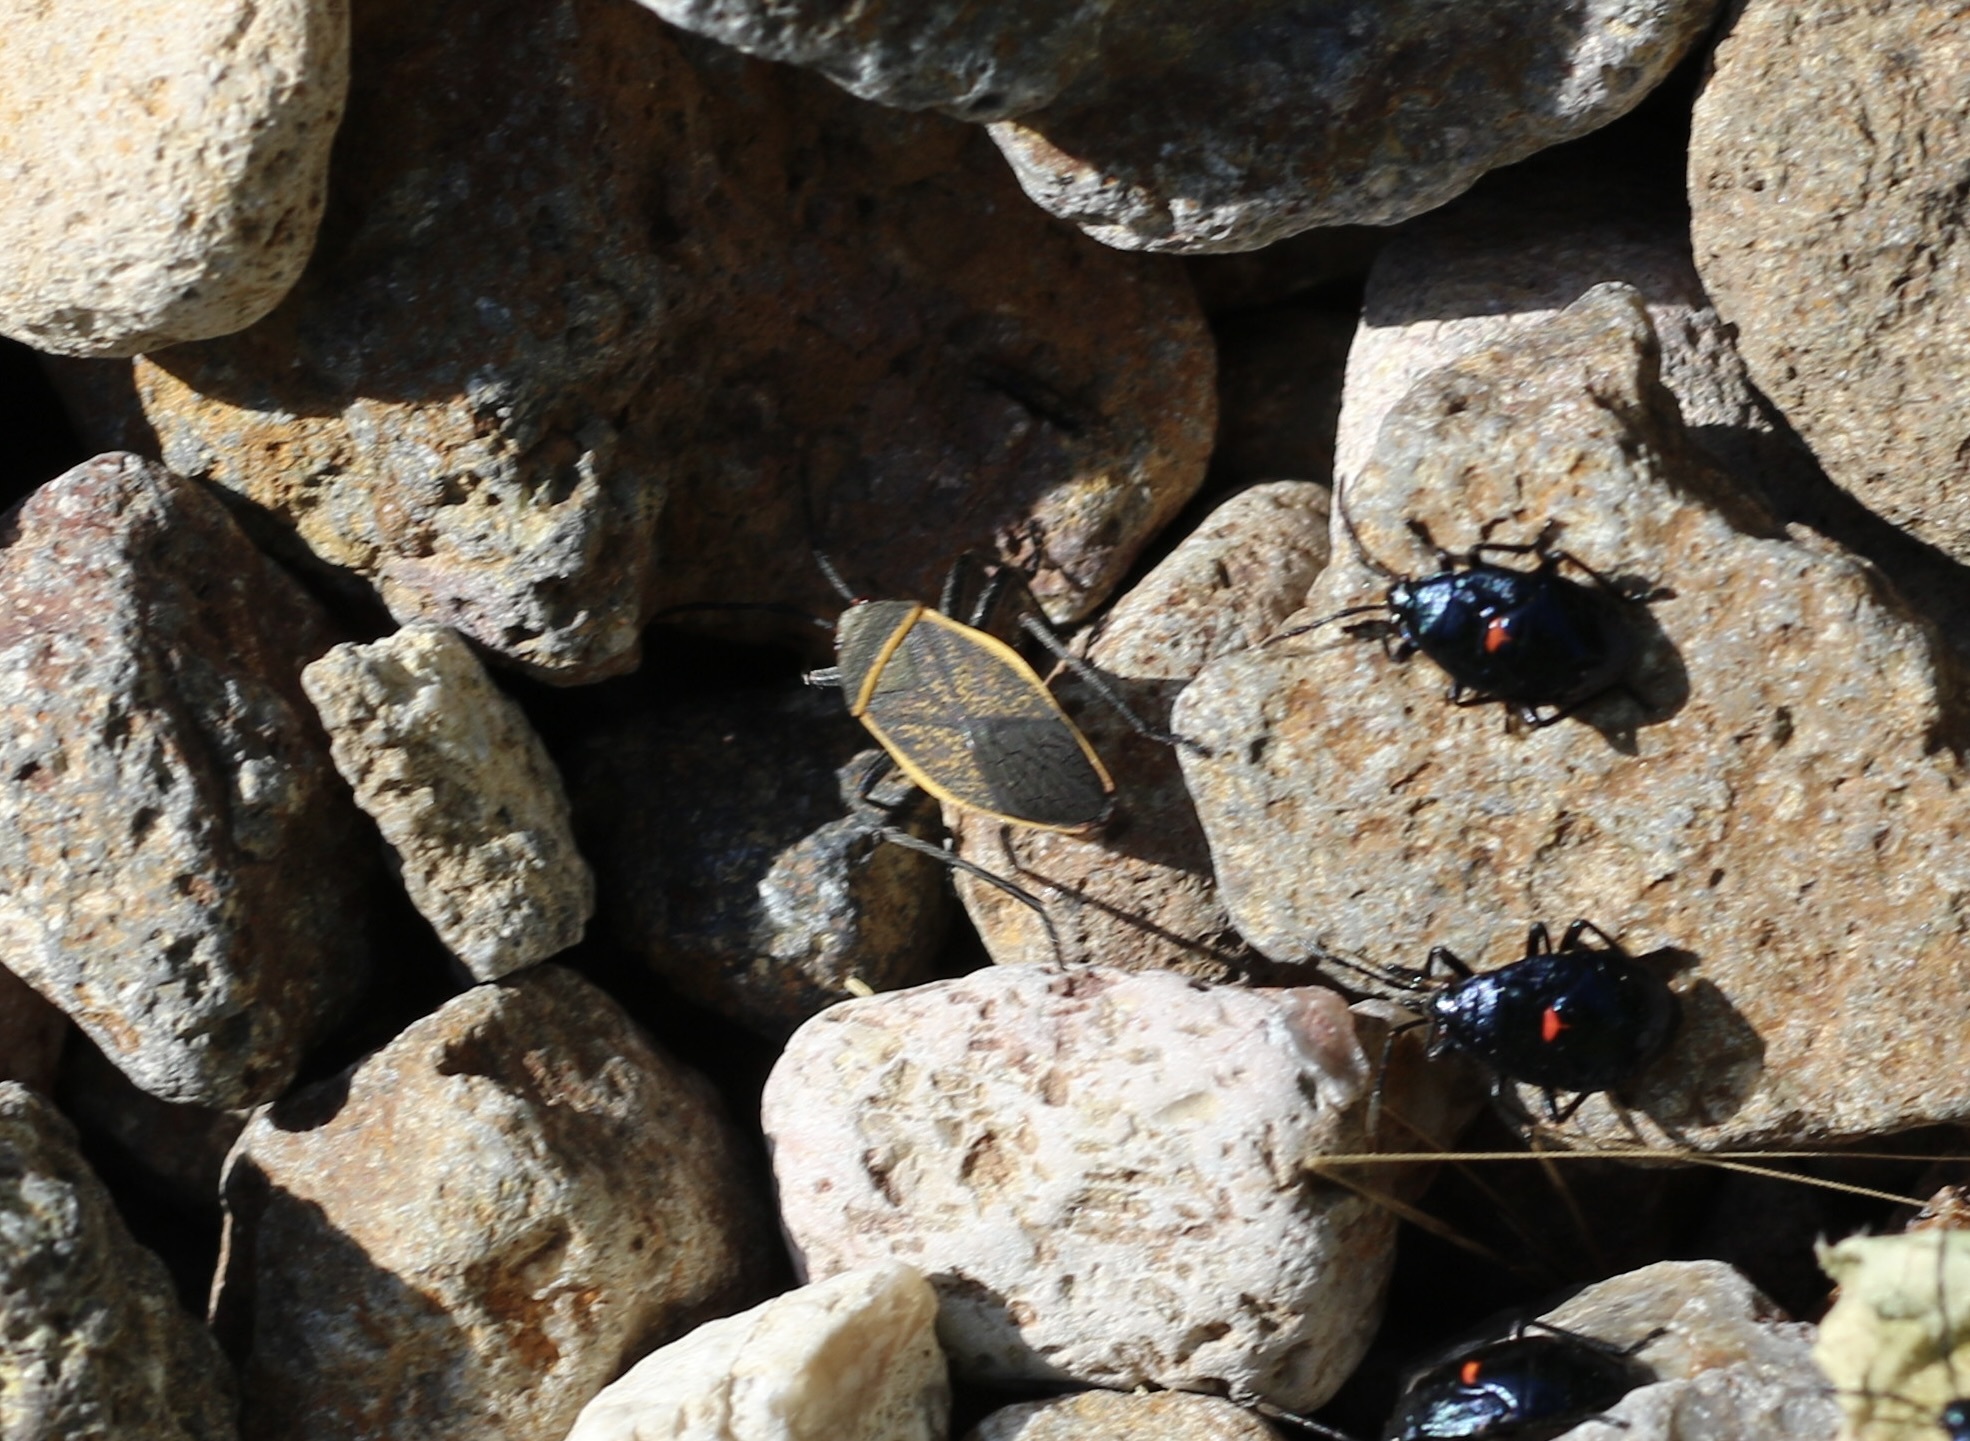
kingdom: Animalia
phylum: Arthropoda
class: Insecta
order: Hemiptera
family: Largidae
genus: Largus
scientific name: Largus californicus
